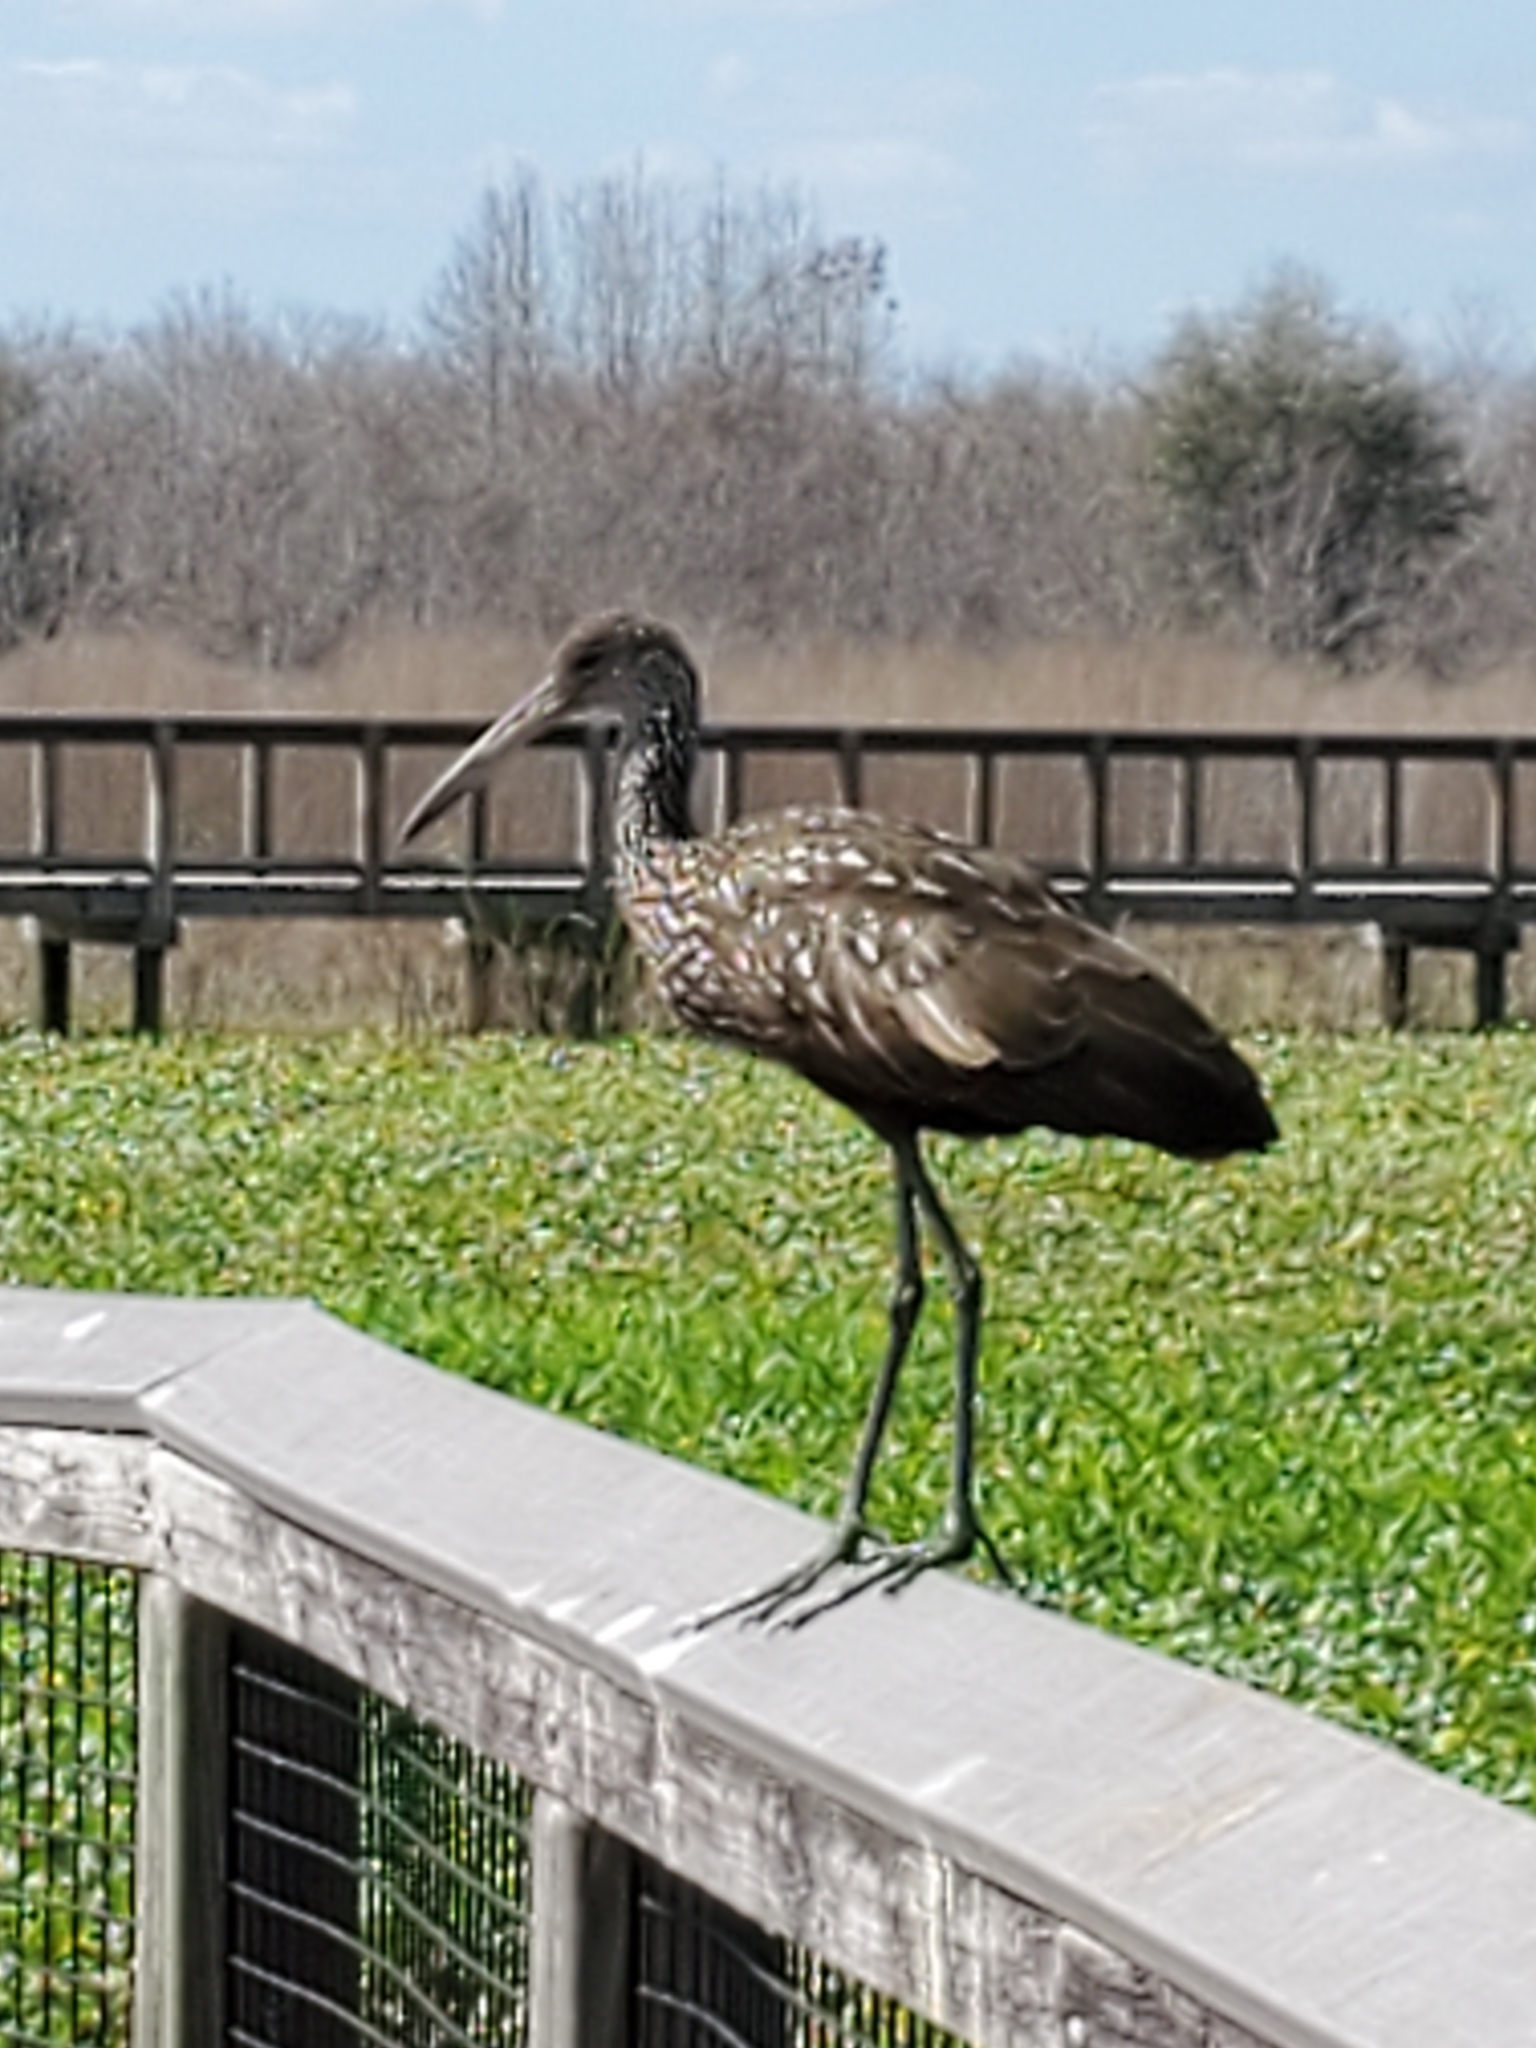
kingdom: Animalia
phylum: Chordata
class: Aves
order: Gruiformes
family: Aramidae
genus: Aramus
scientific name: Aramus guarauna
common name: Limpkin
